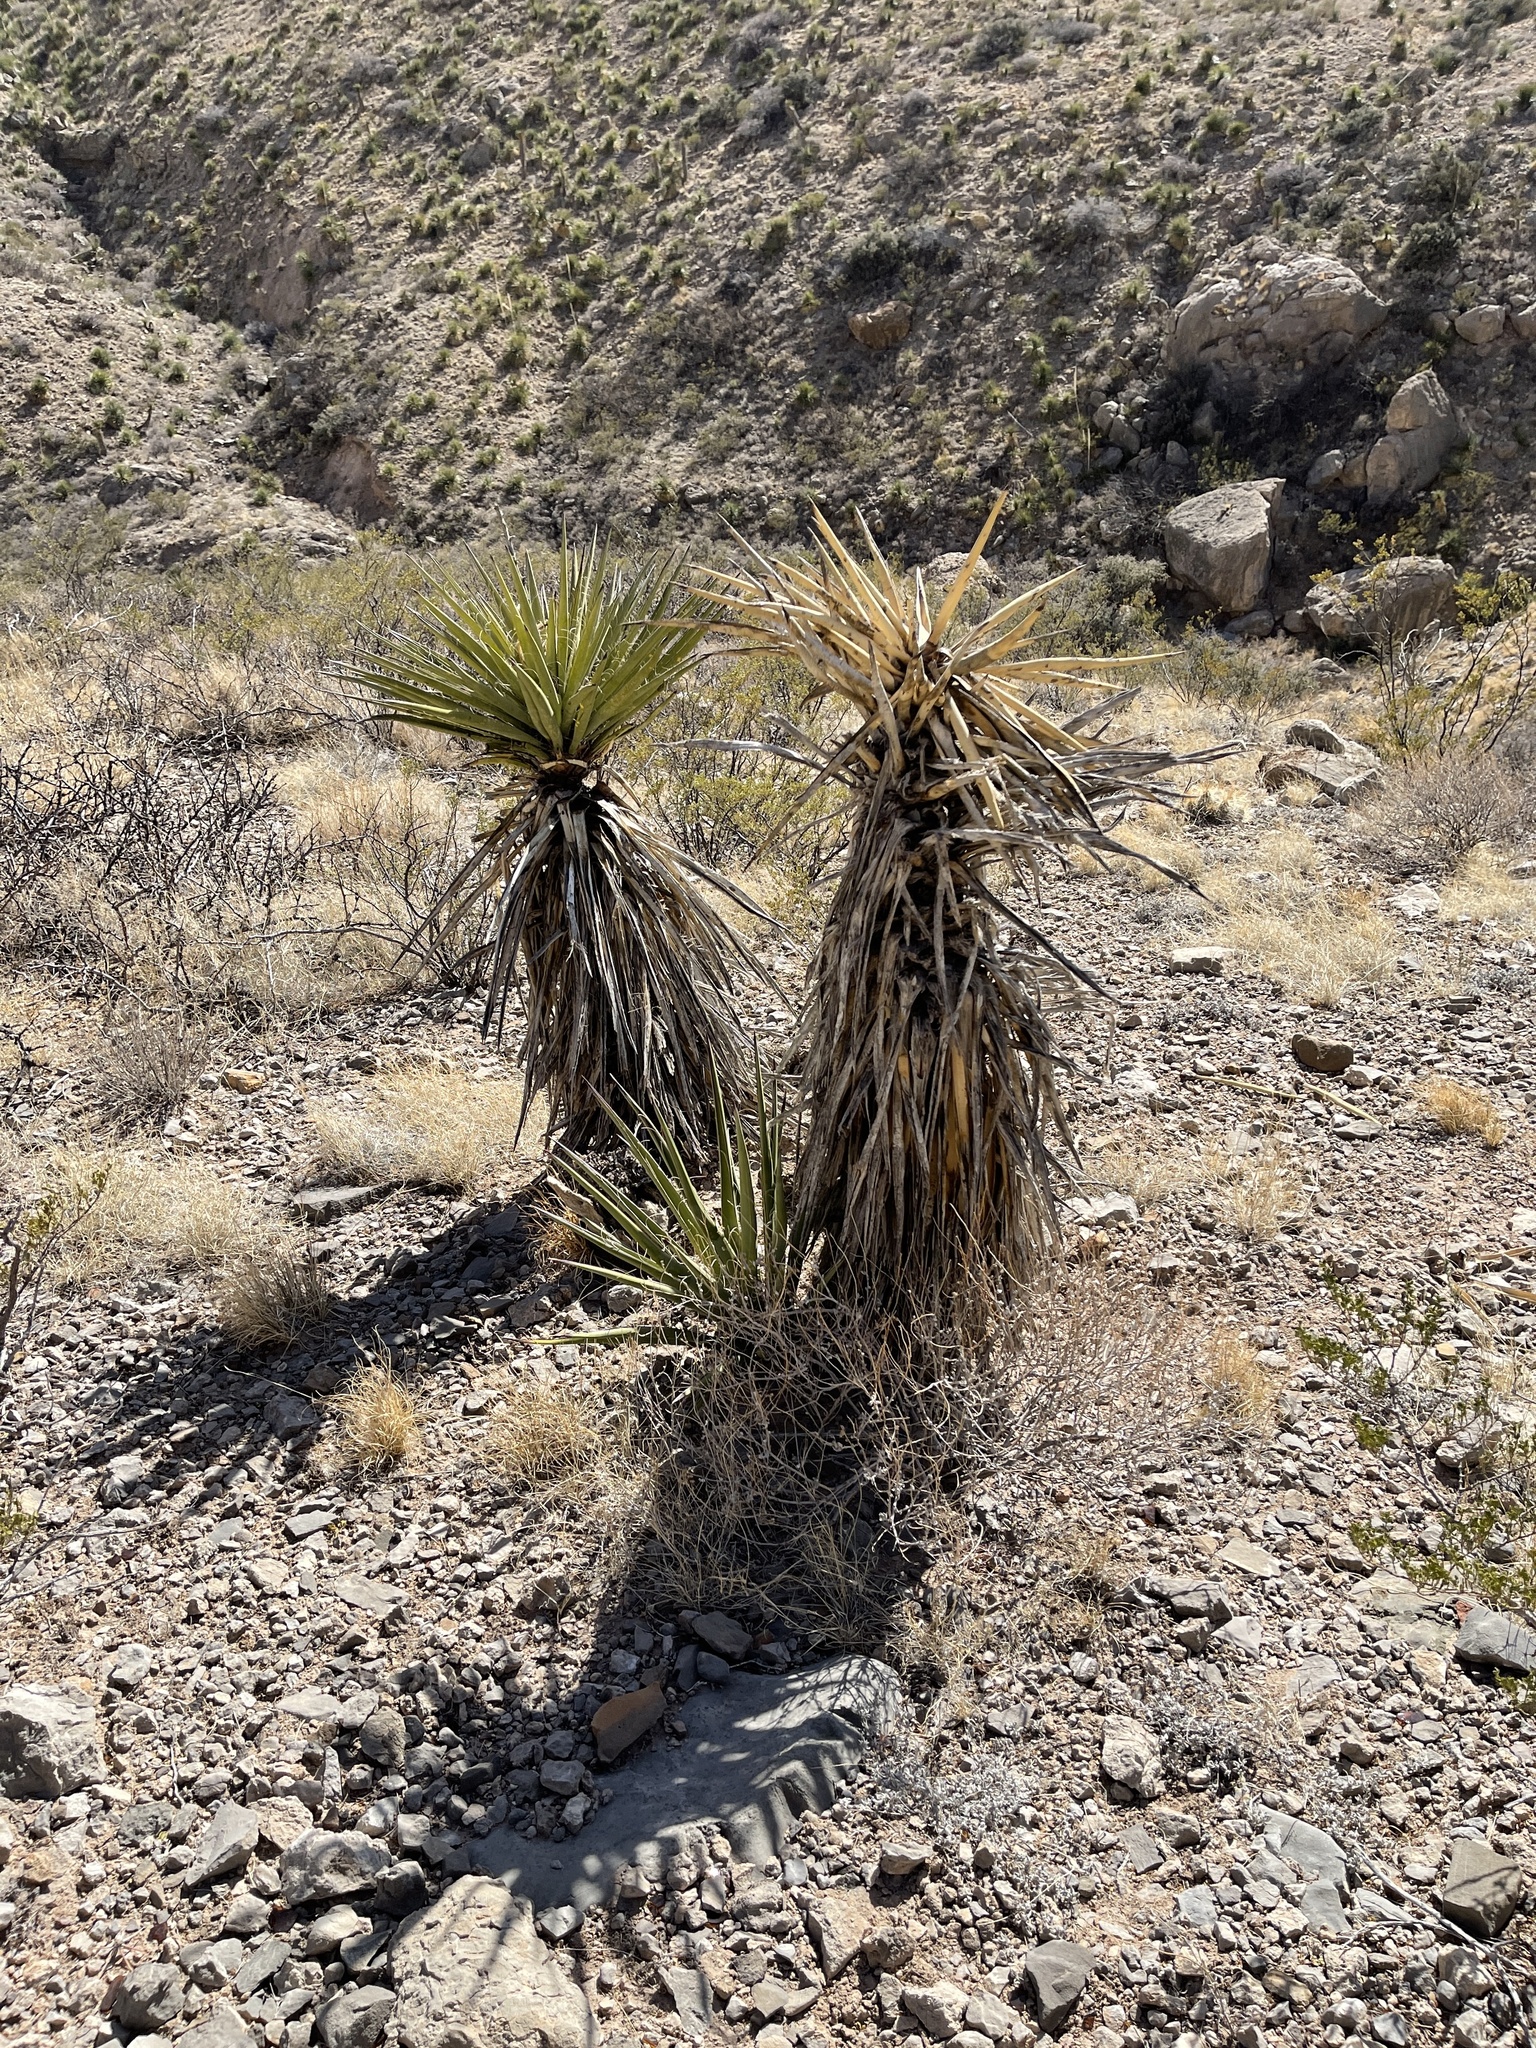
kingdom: Plantae
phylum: Tracheophyta
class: Liliopsida
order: Asparagales
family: Asparagaceae
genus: Yucca
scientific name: Yucca treculiana
